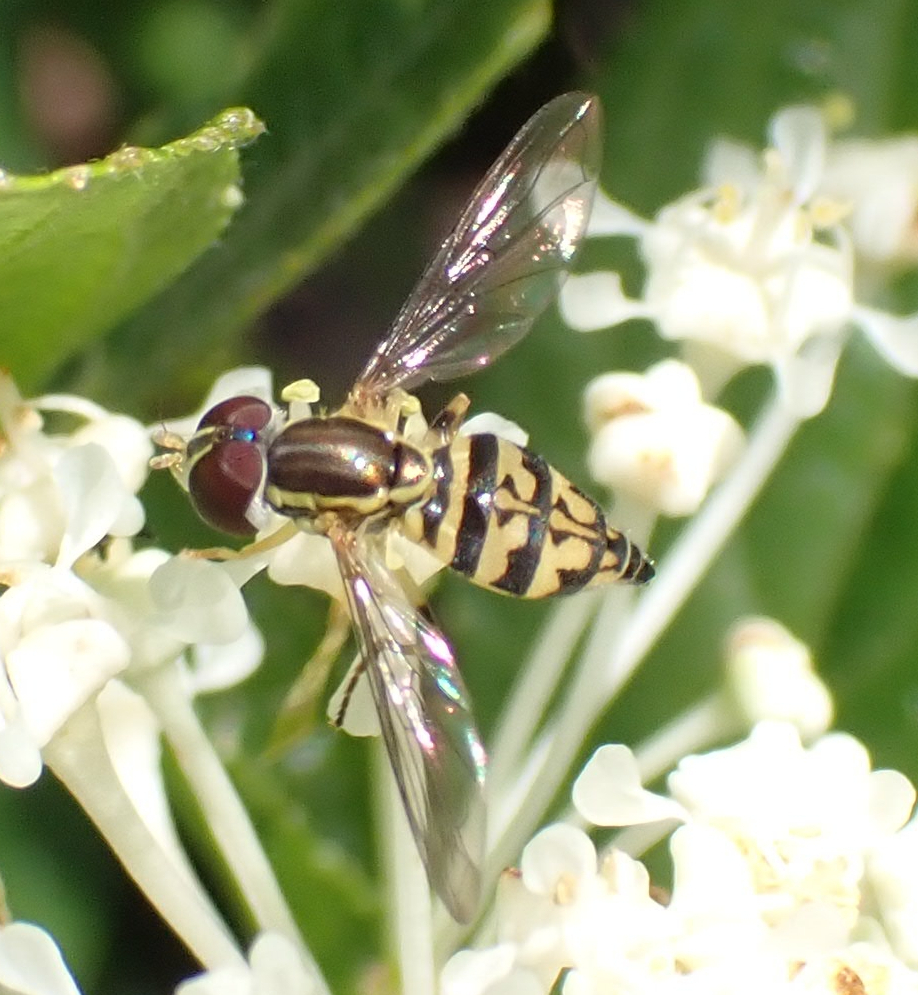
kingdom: Animalia
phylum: Arthropoda
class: Insecta
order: Diptera
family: Syrphidae
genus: Toxomerus
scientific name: Toxomerus geminatus
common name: Eastern calligrapher
